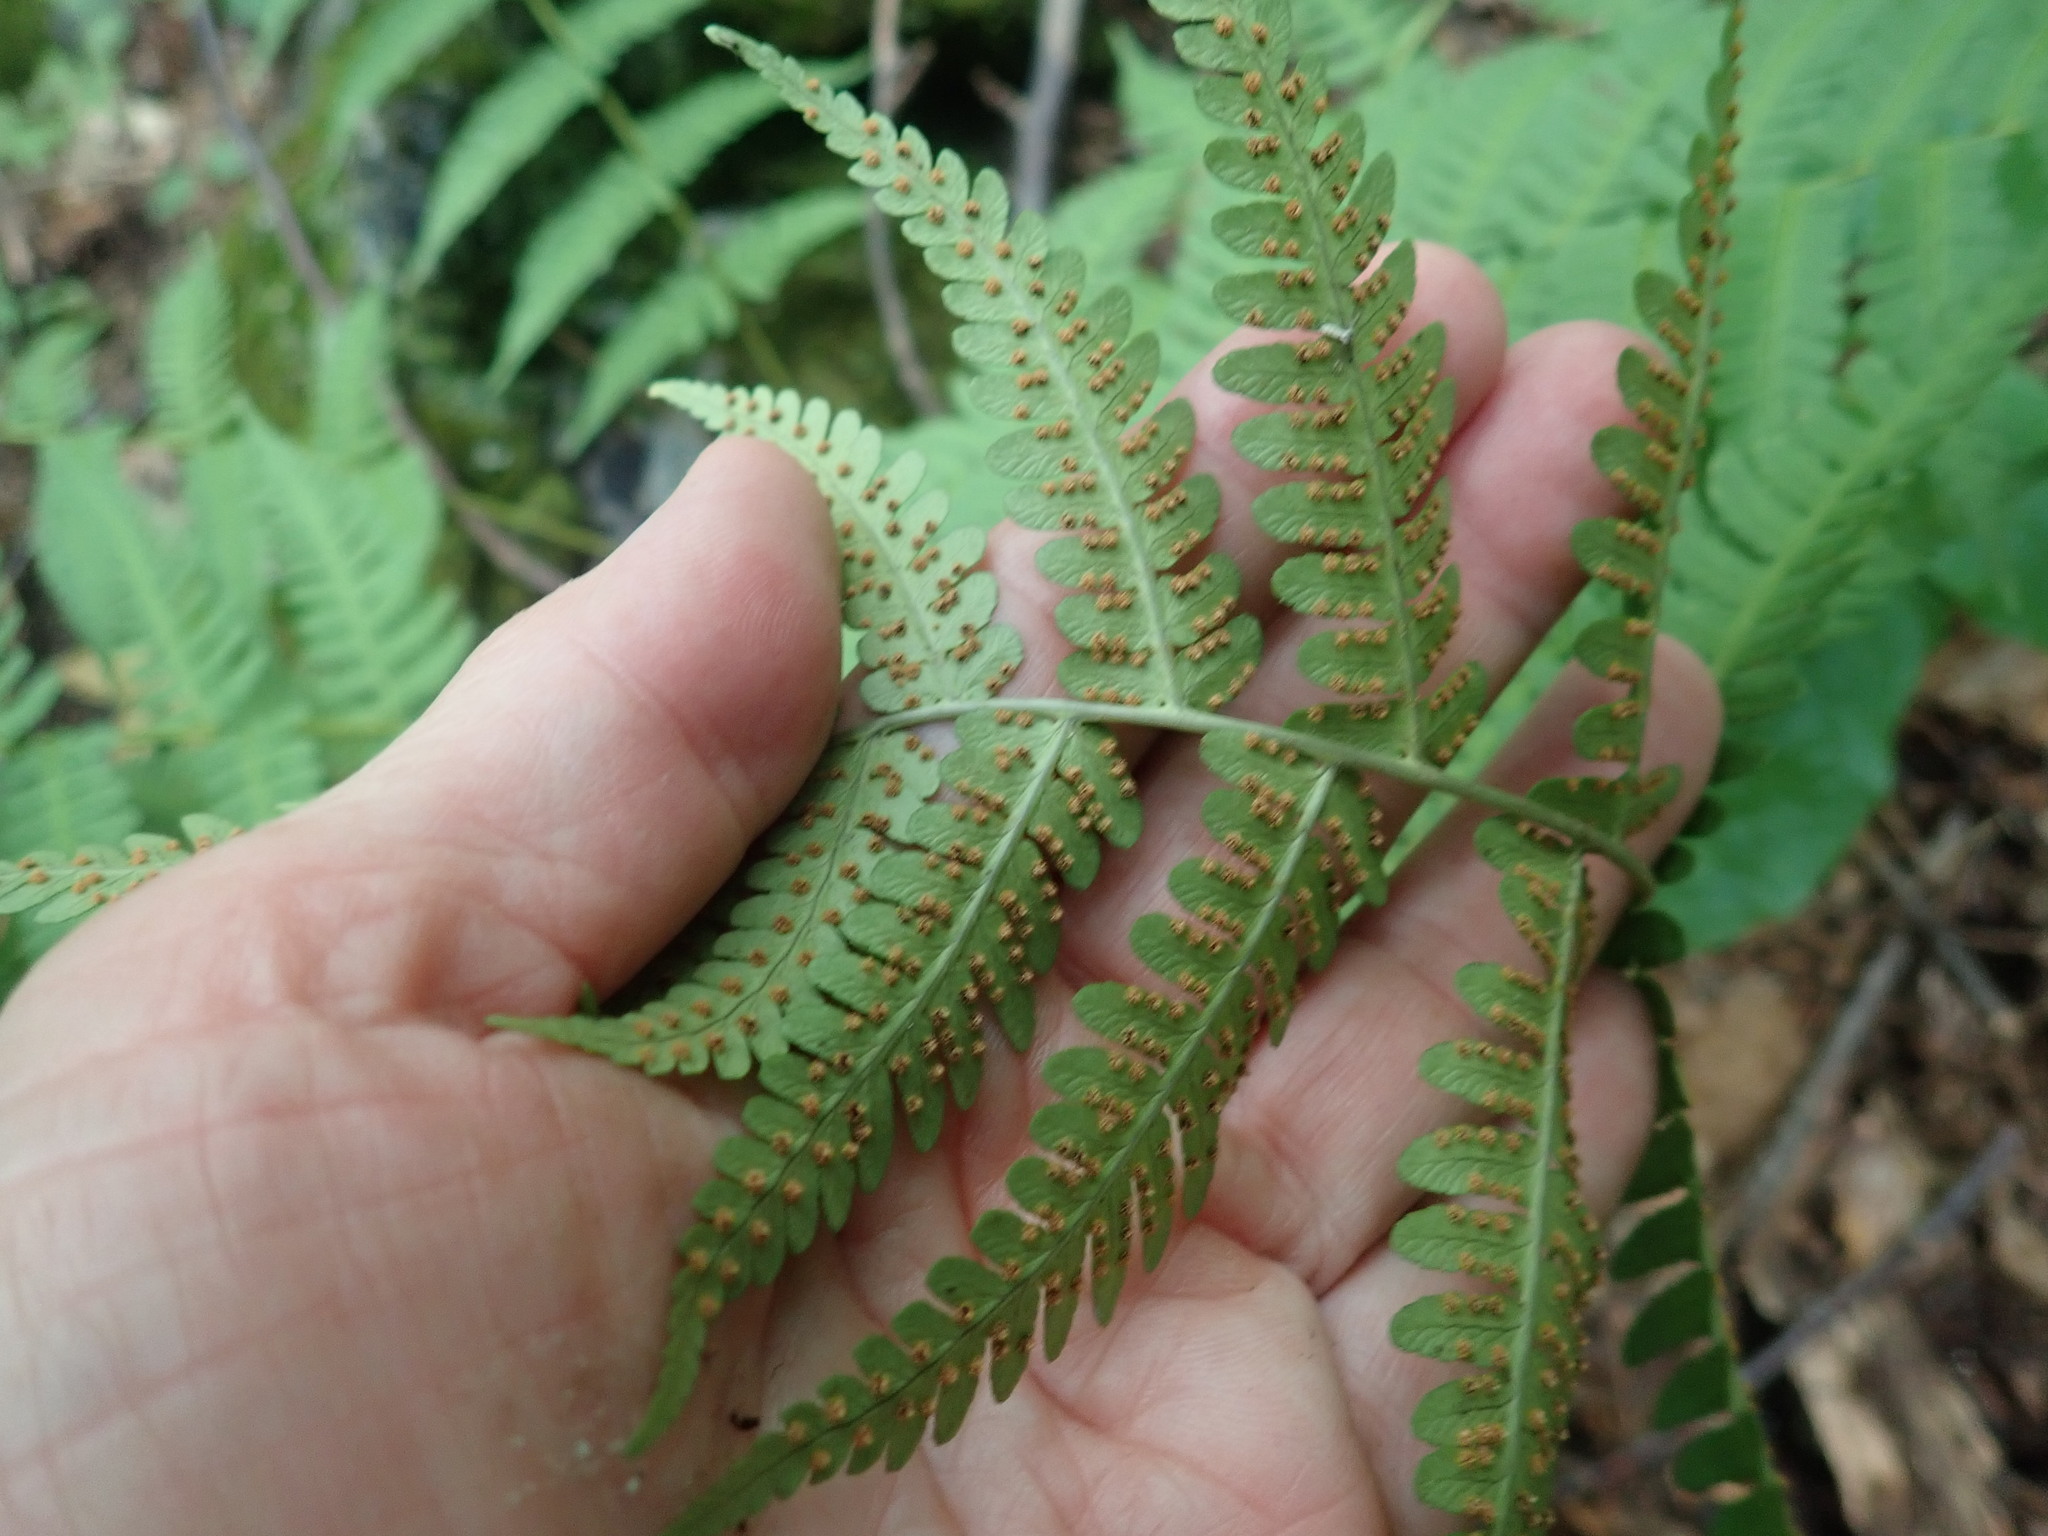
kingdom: Plantae
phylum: Tracheophyta
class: Polypodiopsida
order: Polypodiales
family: Dryopteridaceae
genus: Dryopteris
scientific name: Dryopteris marginalis
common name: Marginal wood fern
